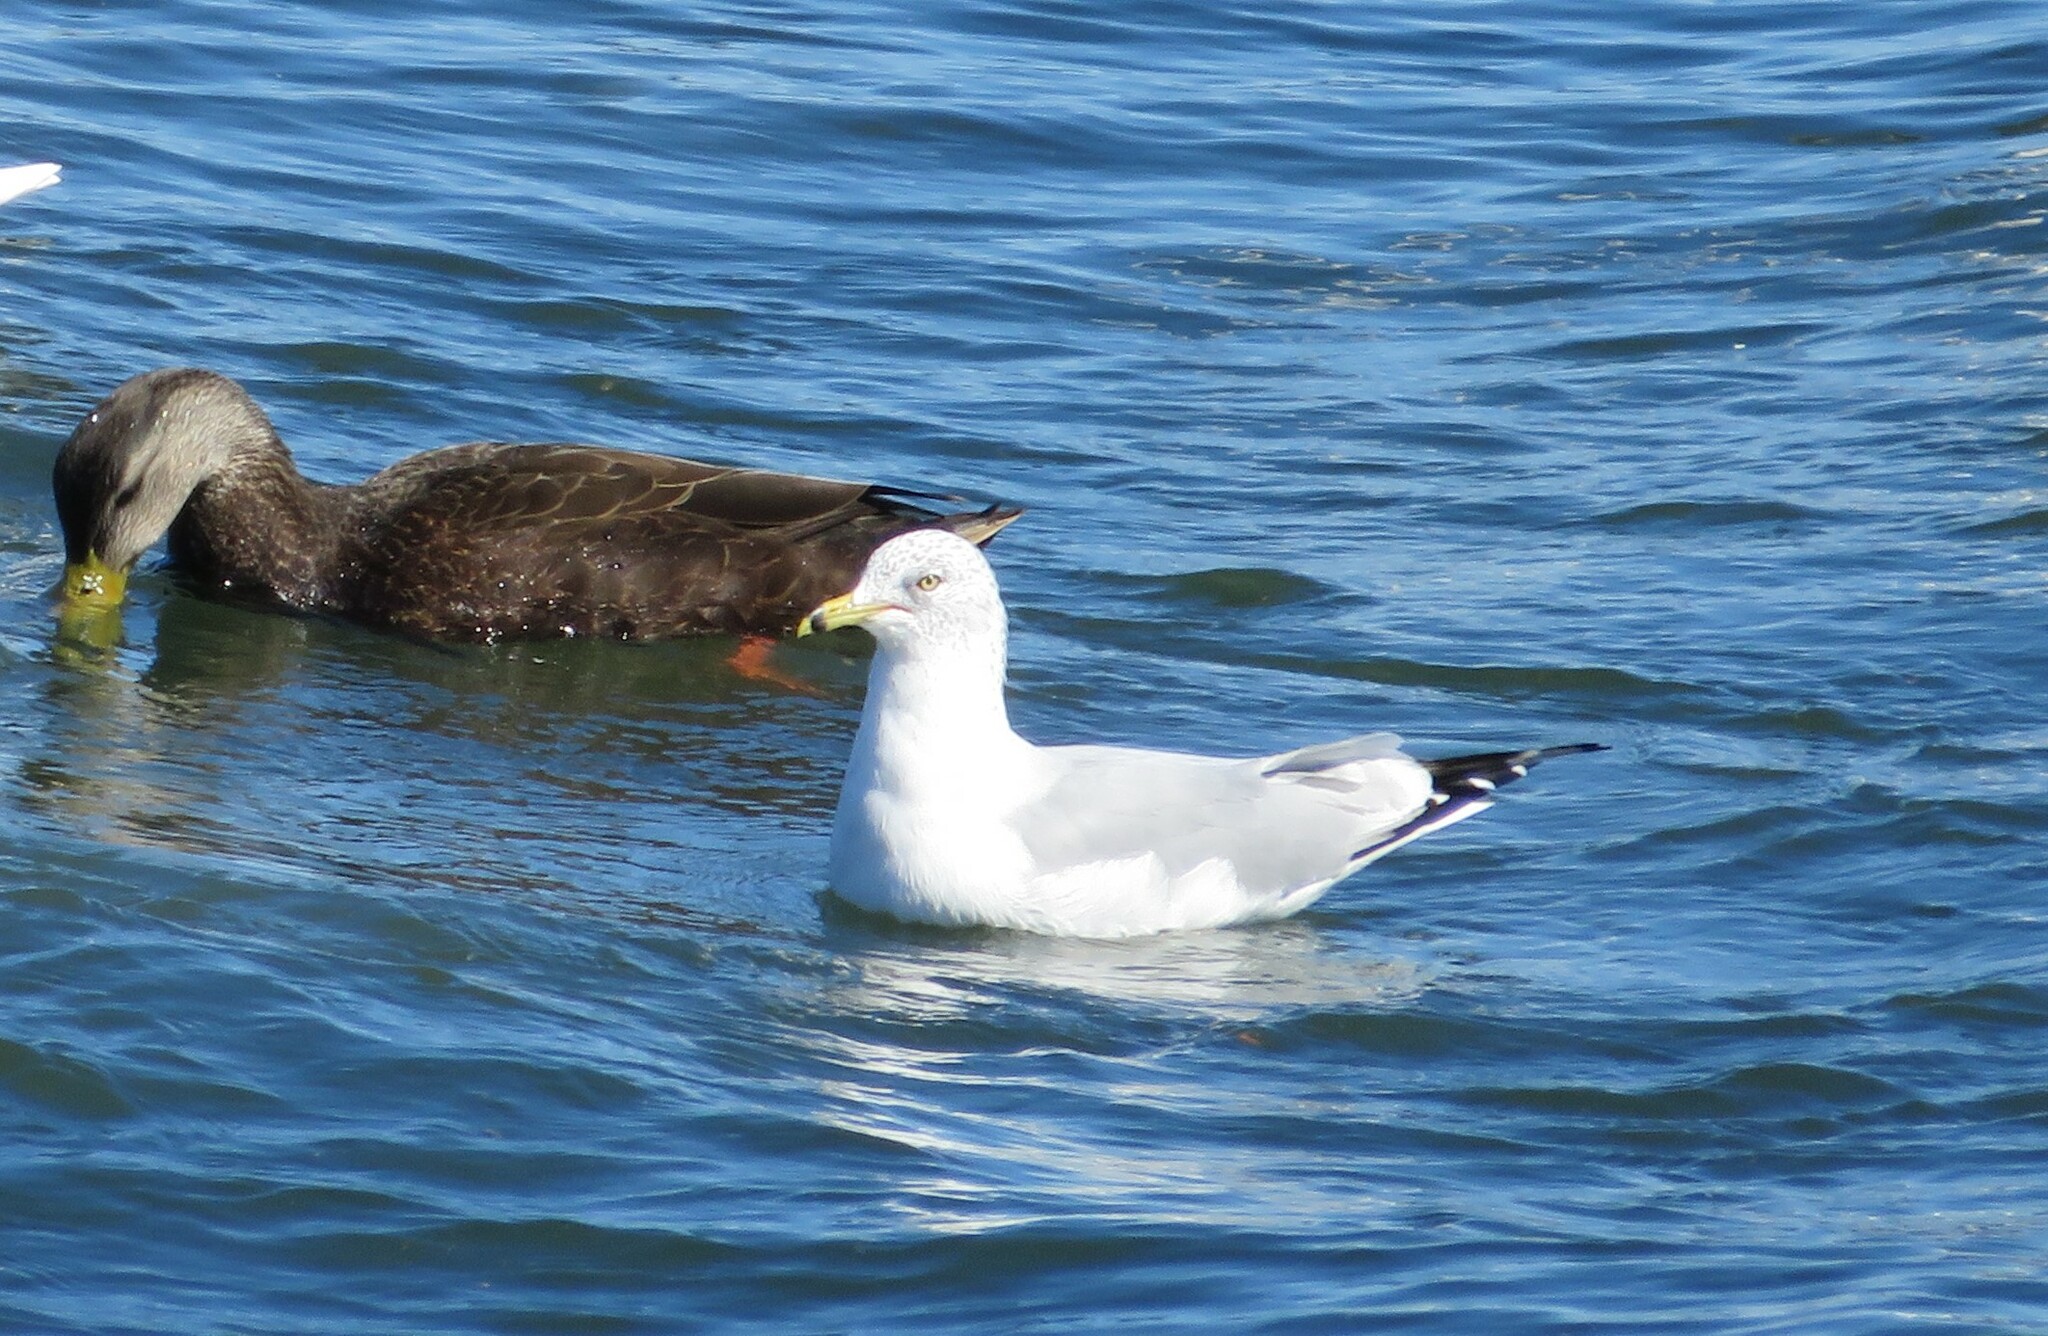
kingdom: Animalia
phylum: Chordata
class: Aves
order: Charadriiformes
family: Laridae
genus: Larus
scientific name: Larus delawarensis
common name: Ring-billed gull
